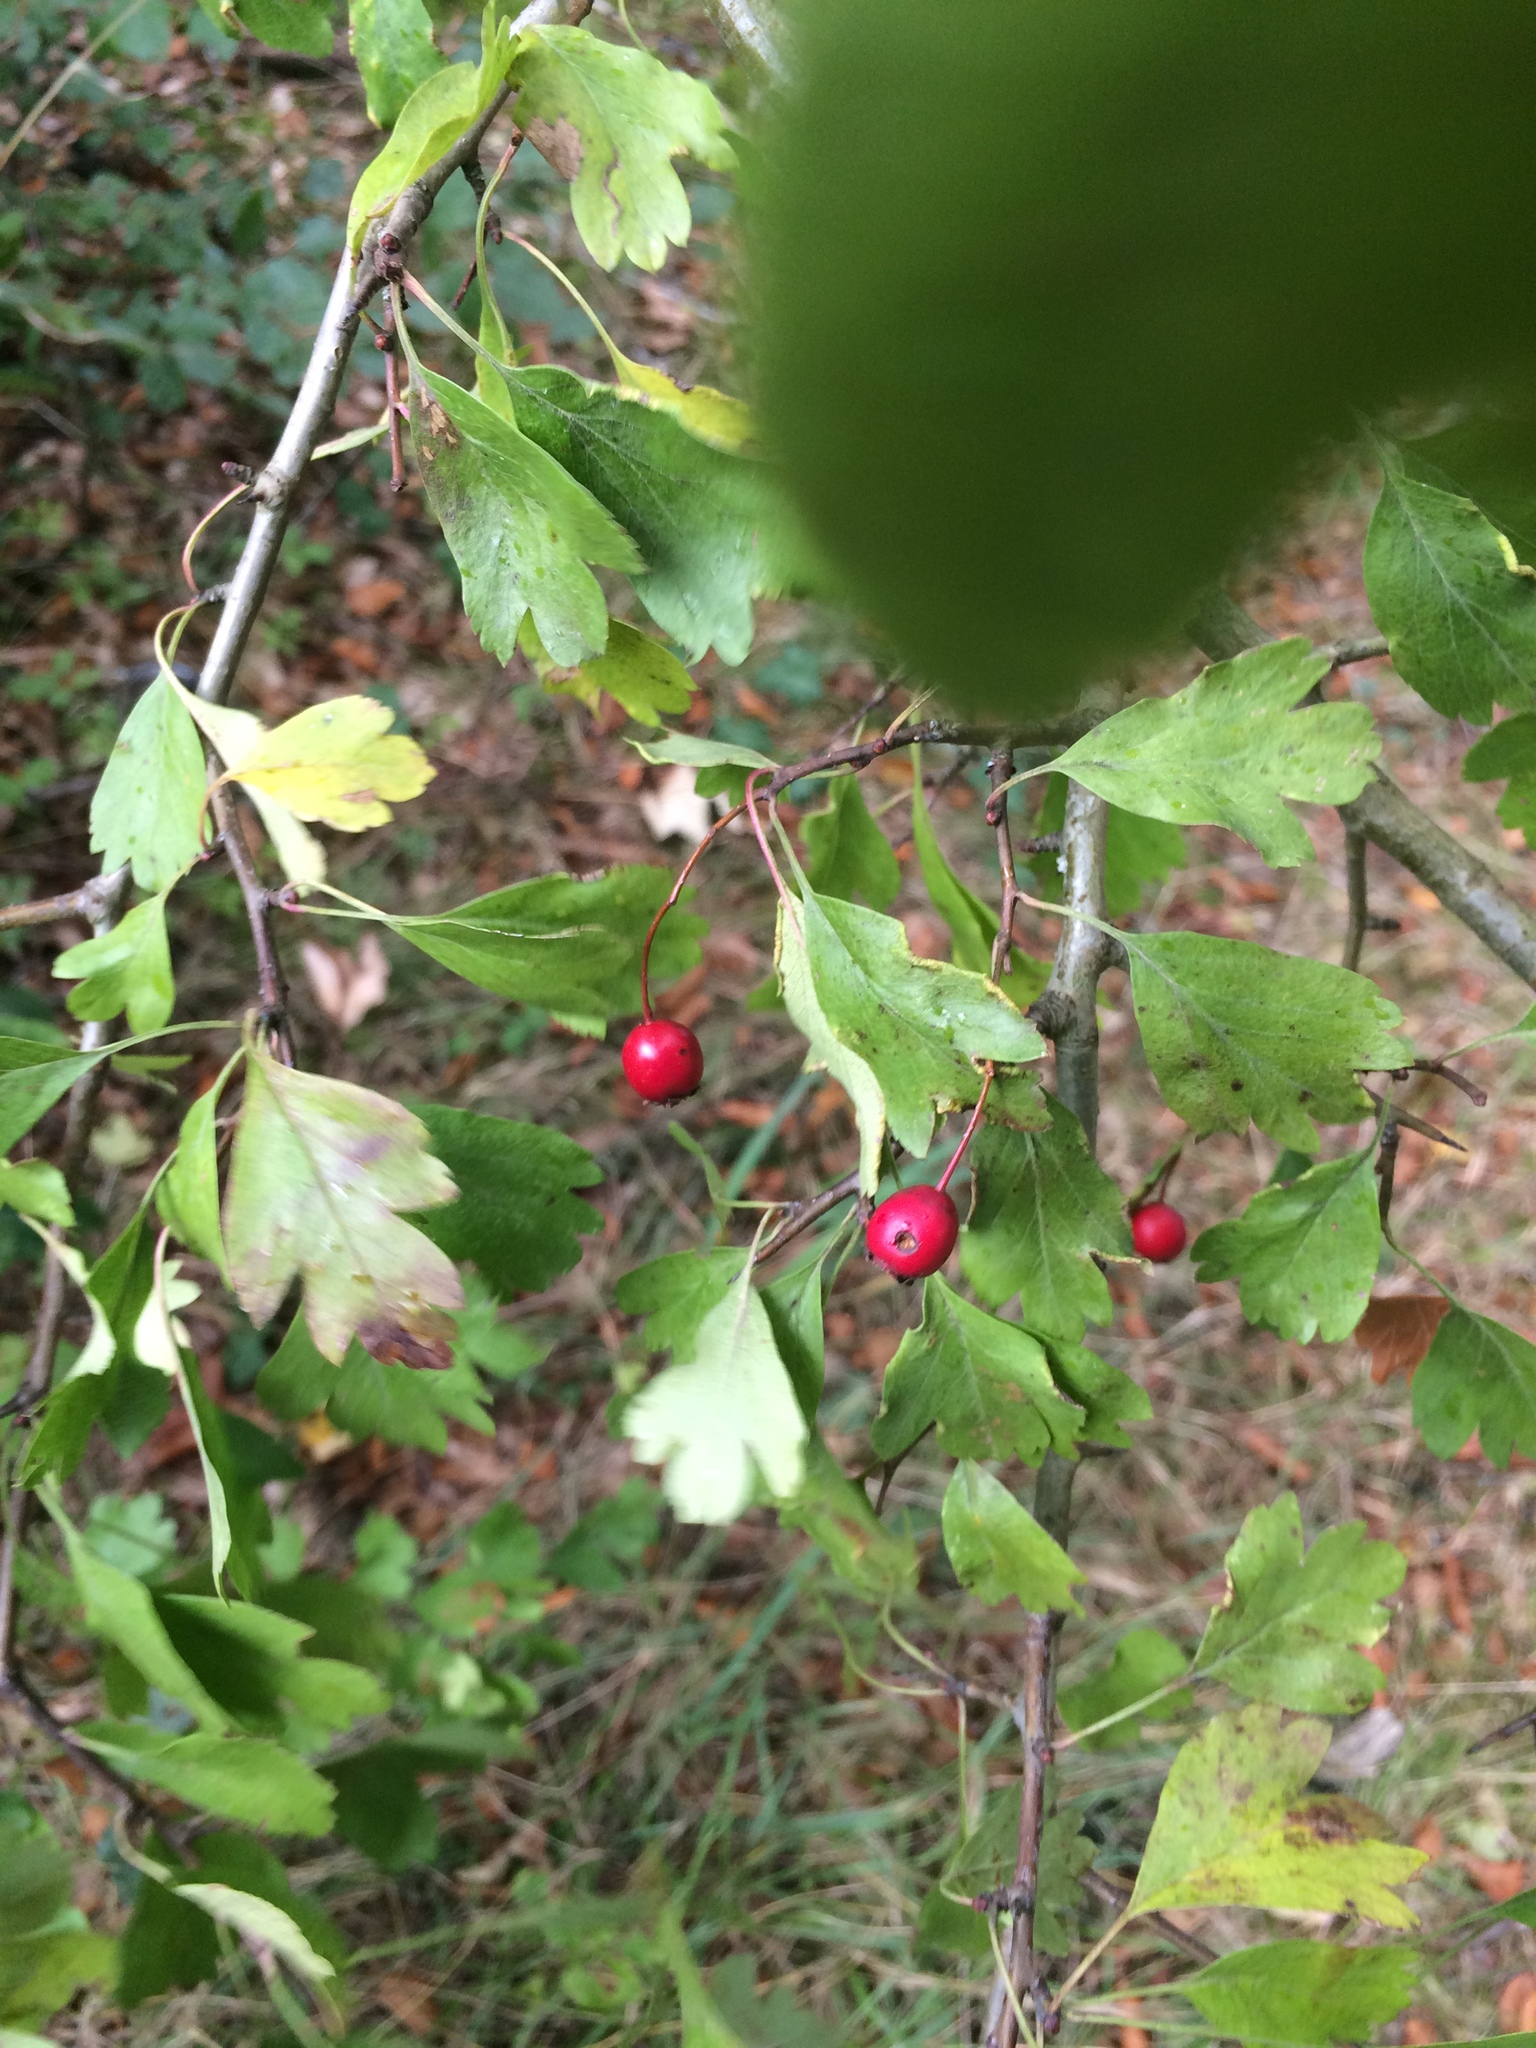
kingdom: Plantae
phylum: Tracheophyta
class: Magnoliopsida
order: Rosales
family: Rosaceae
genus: Crataegus
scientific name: Crataegus monogyna
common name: Hawthorn
